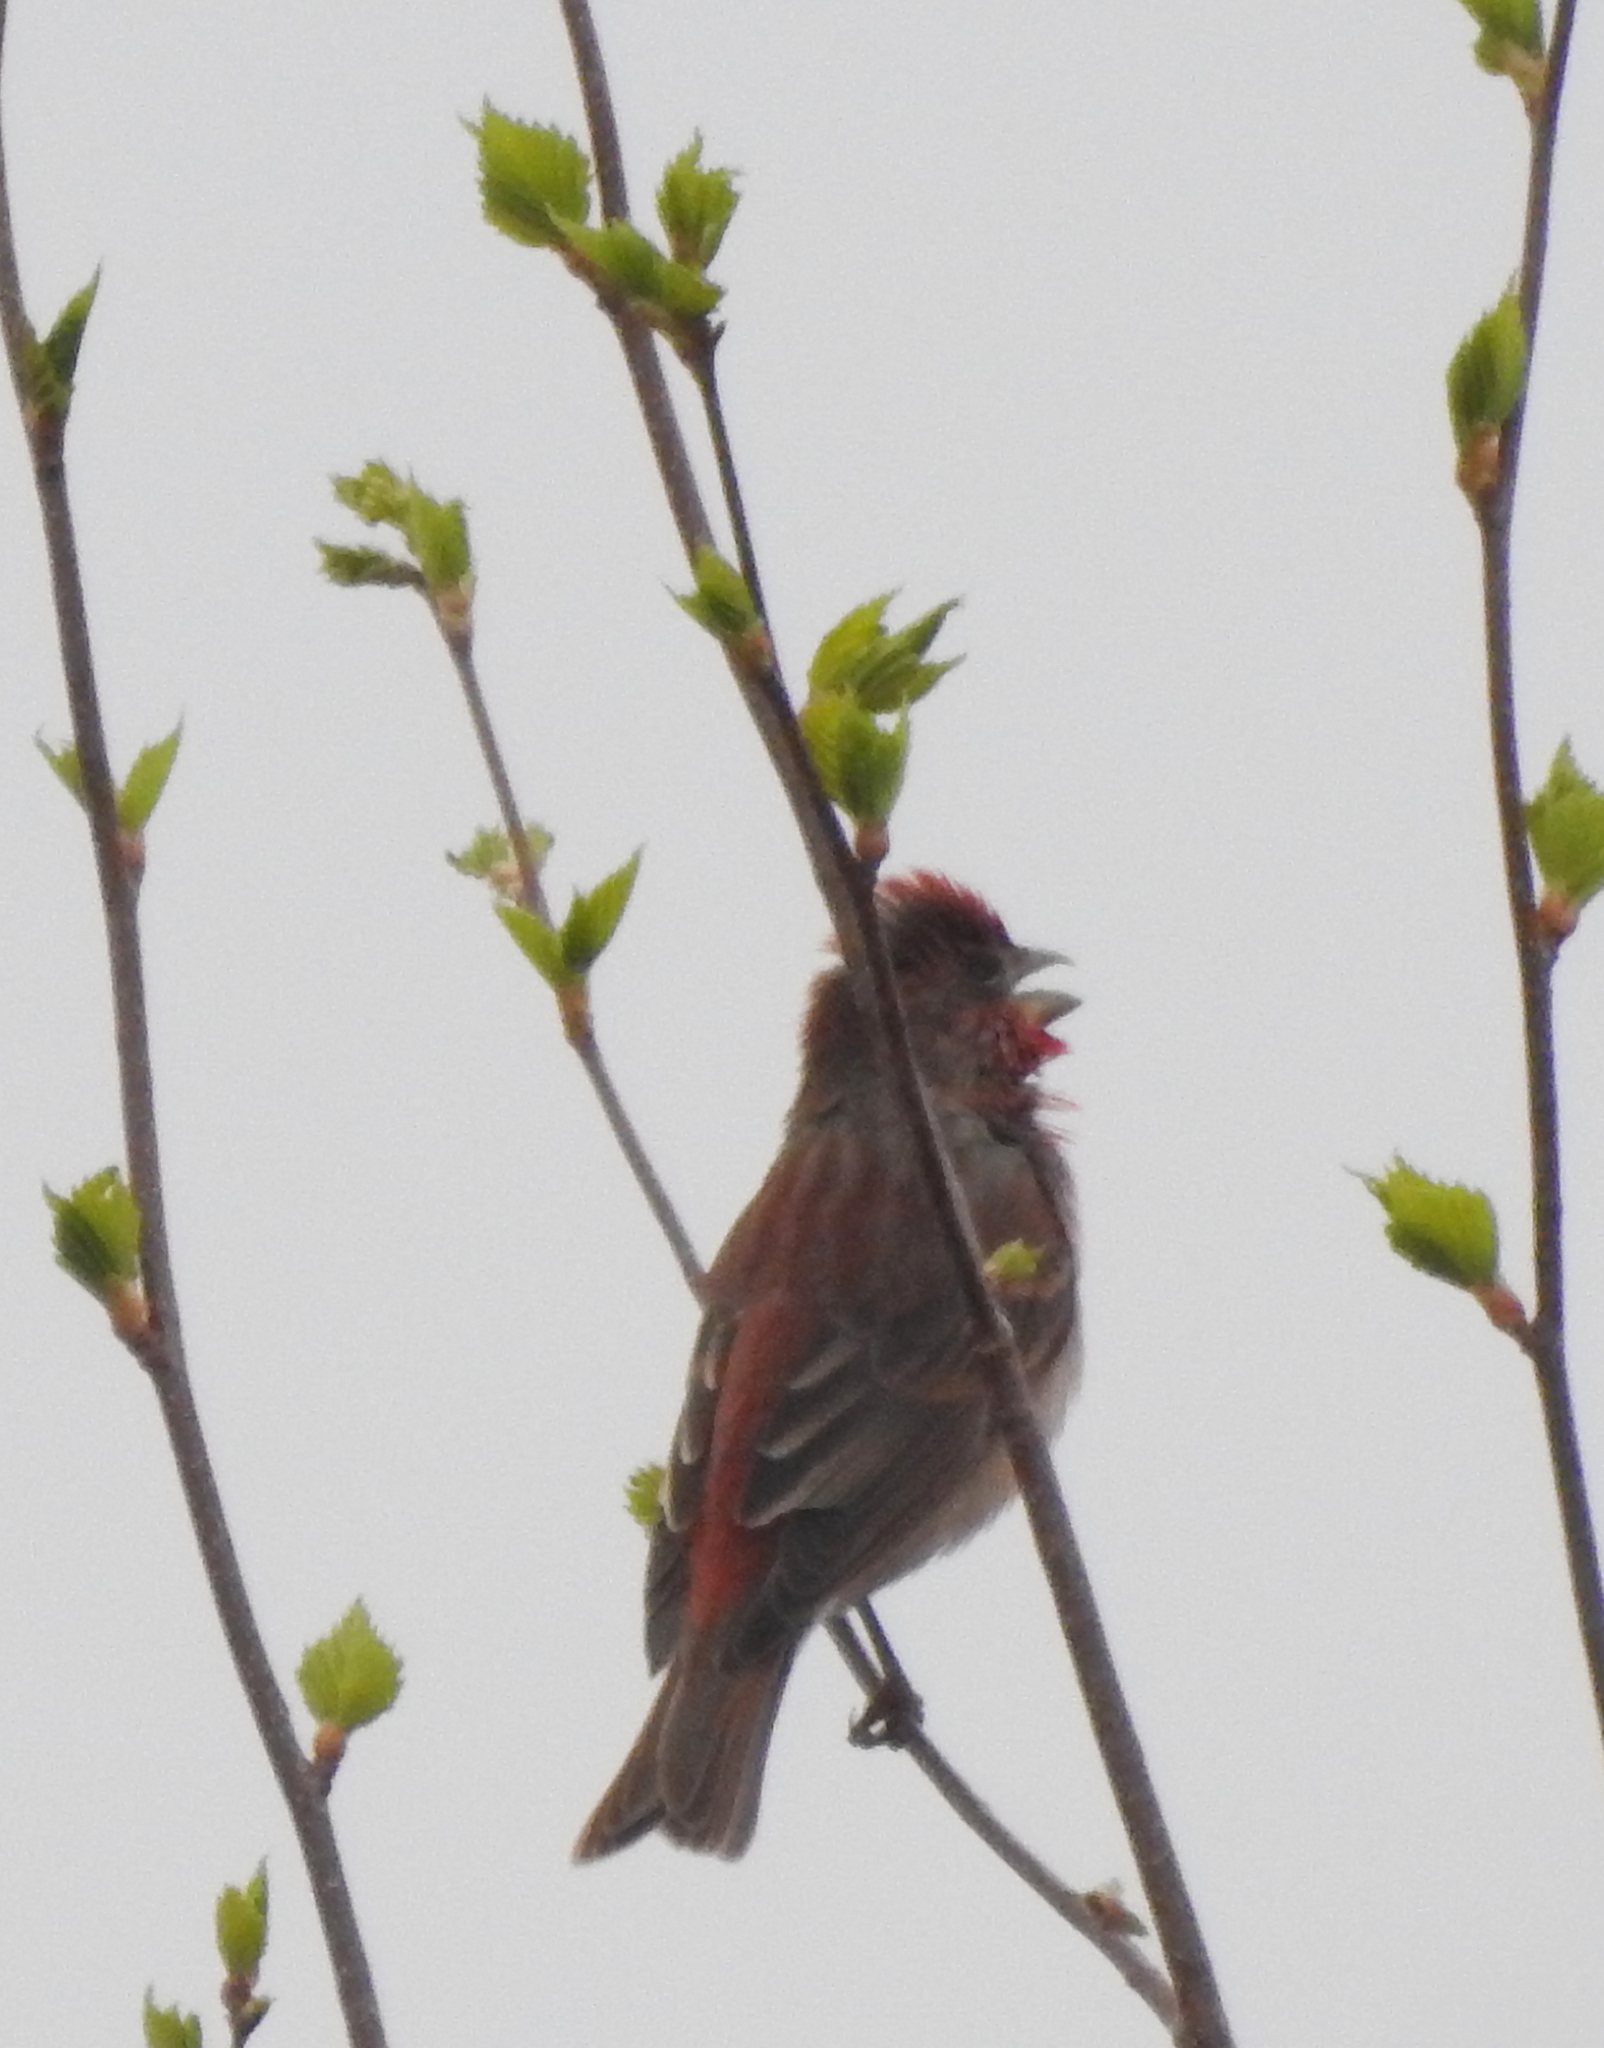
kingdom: Animalia
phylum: Chordata
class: Aves
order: Passeriformes
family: Fringillidae
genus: Carpodacus
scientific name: Carpodacus erythrinus
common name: Common rosefinch
